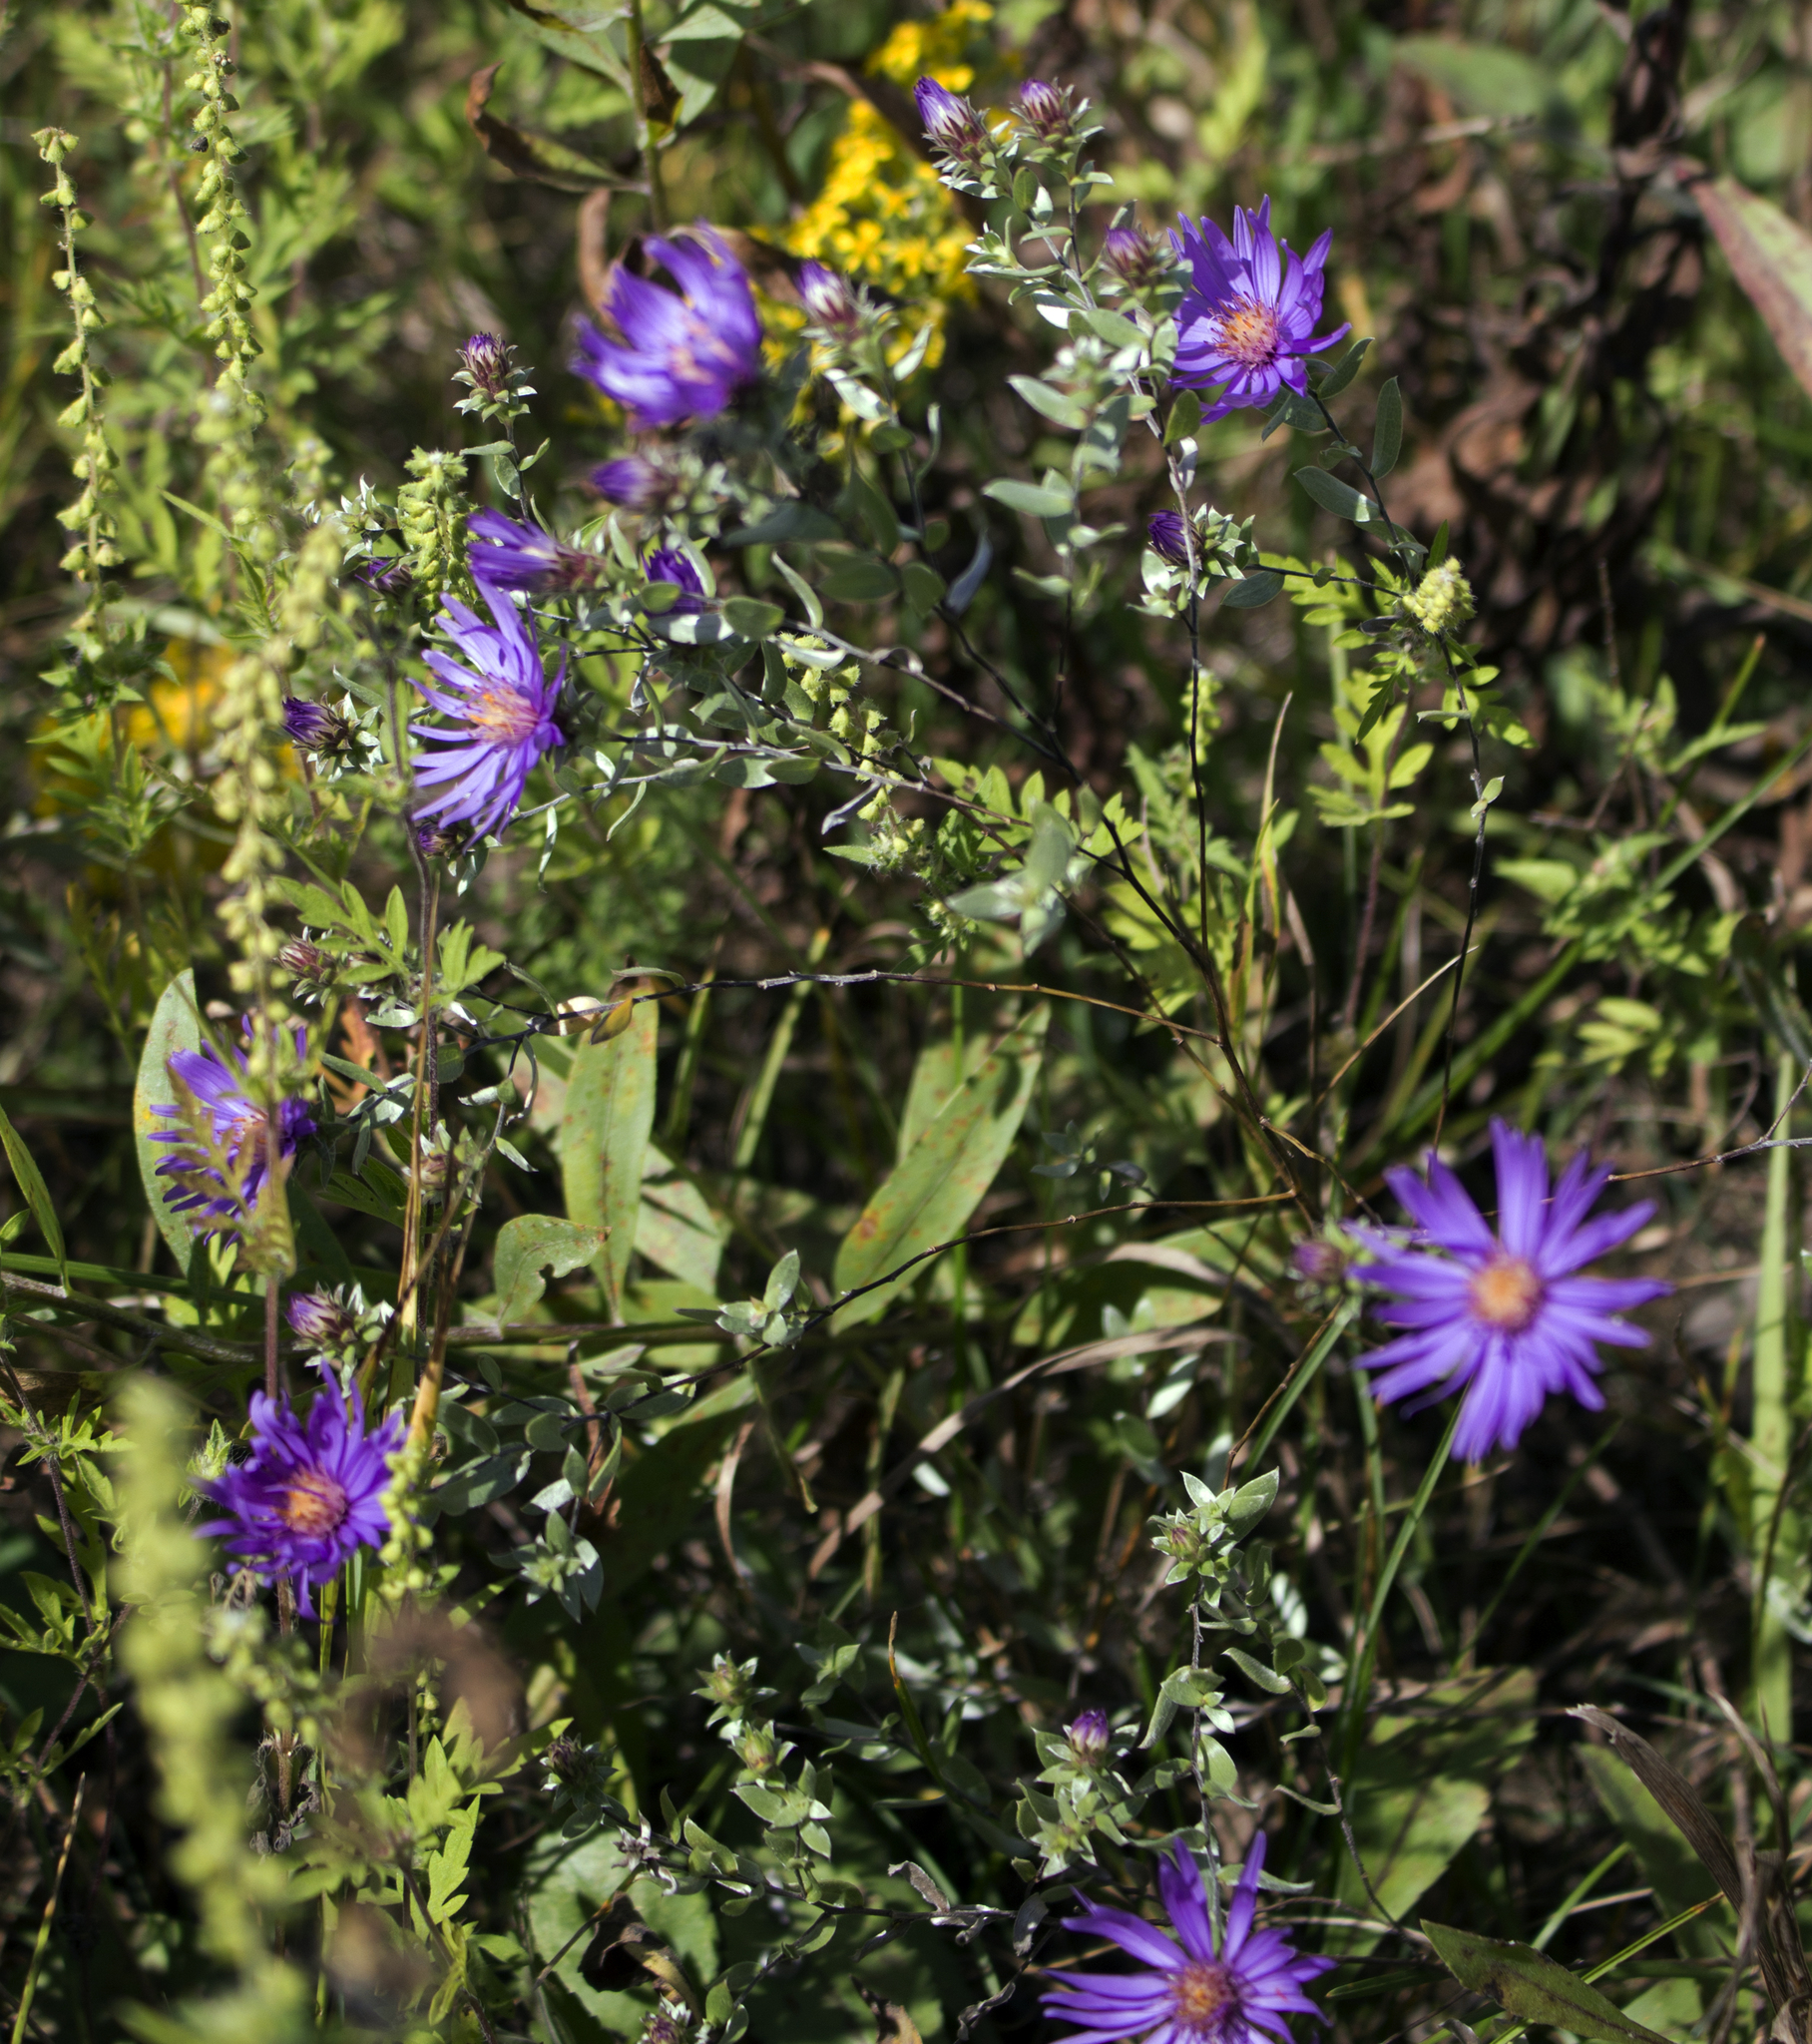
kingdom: Plantae
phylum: Tracheophyta
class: Magnoliopsida
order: Asterales
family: Asteraceae
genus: Symphyotrichum
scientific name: Symphyotrichum sericeum
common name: Silky aster
